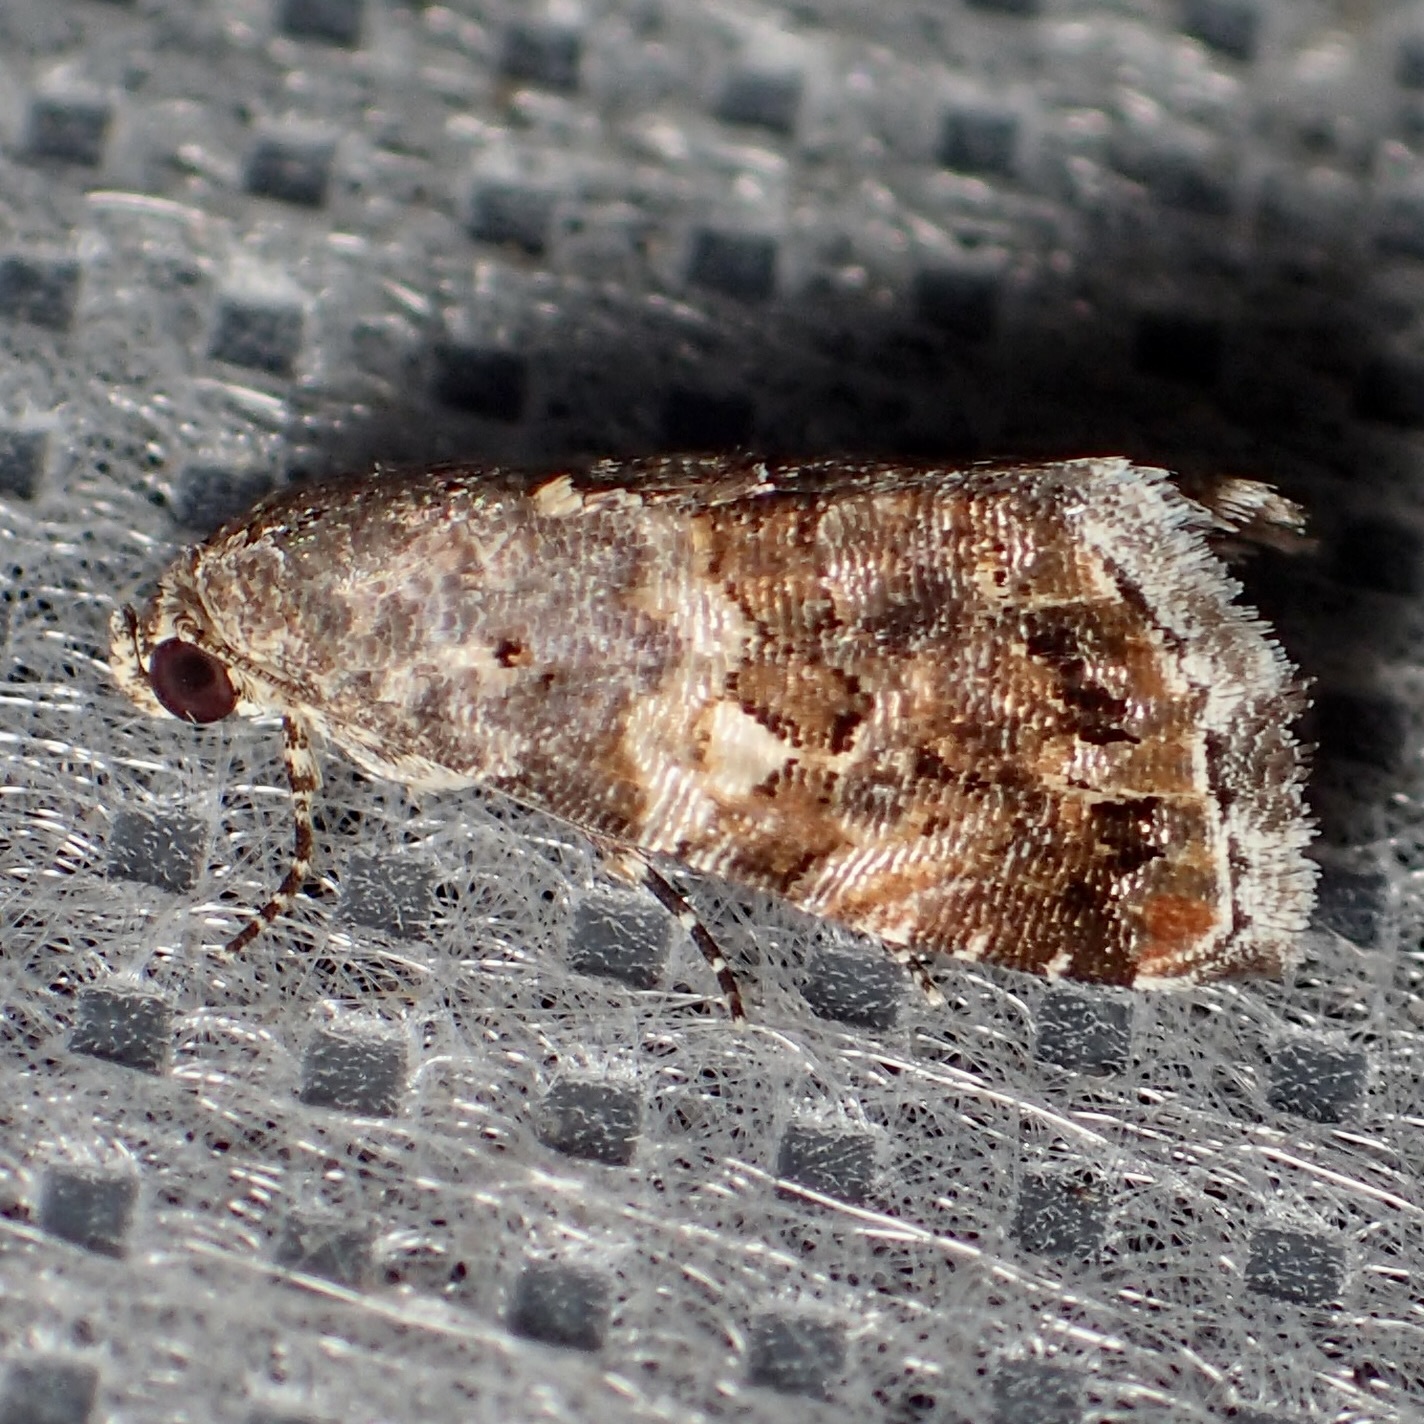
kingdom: Animalia
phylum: Arthropoda
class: Insecta
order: Lepidoptera
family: Noctuidae
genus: Tripudia
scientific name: Tripudia luxuriosa
